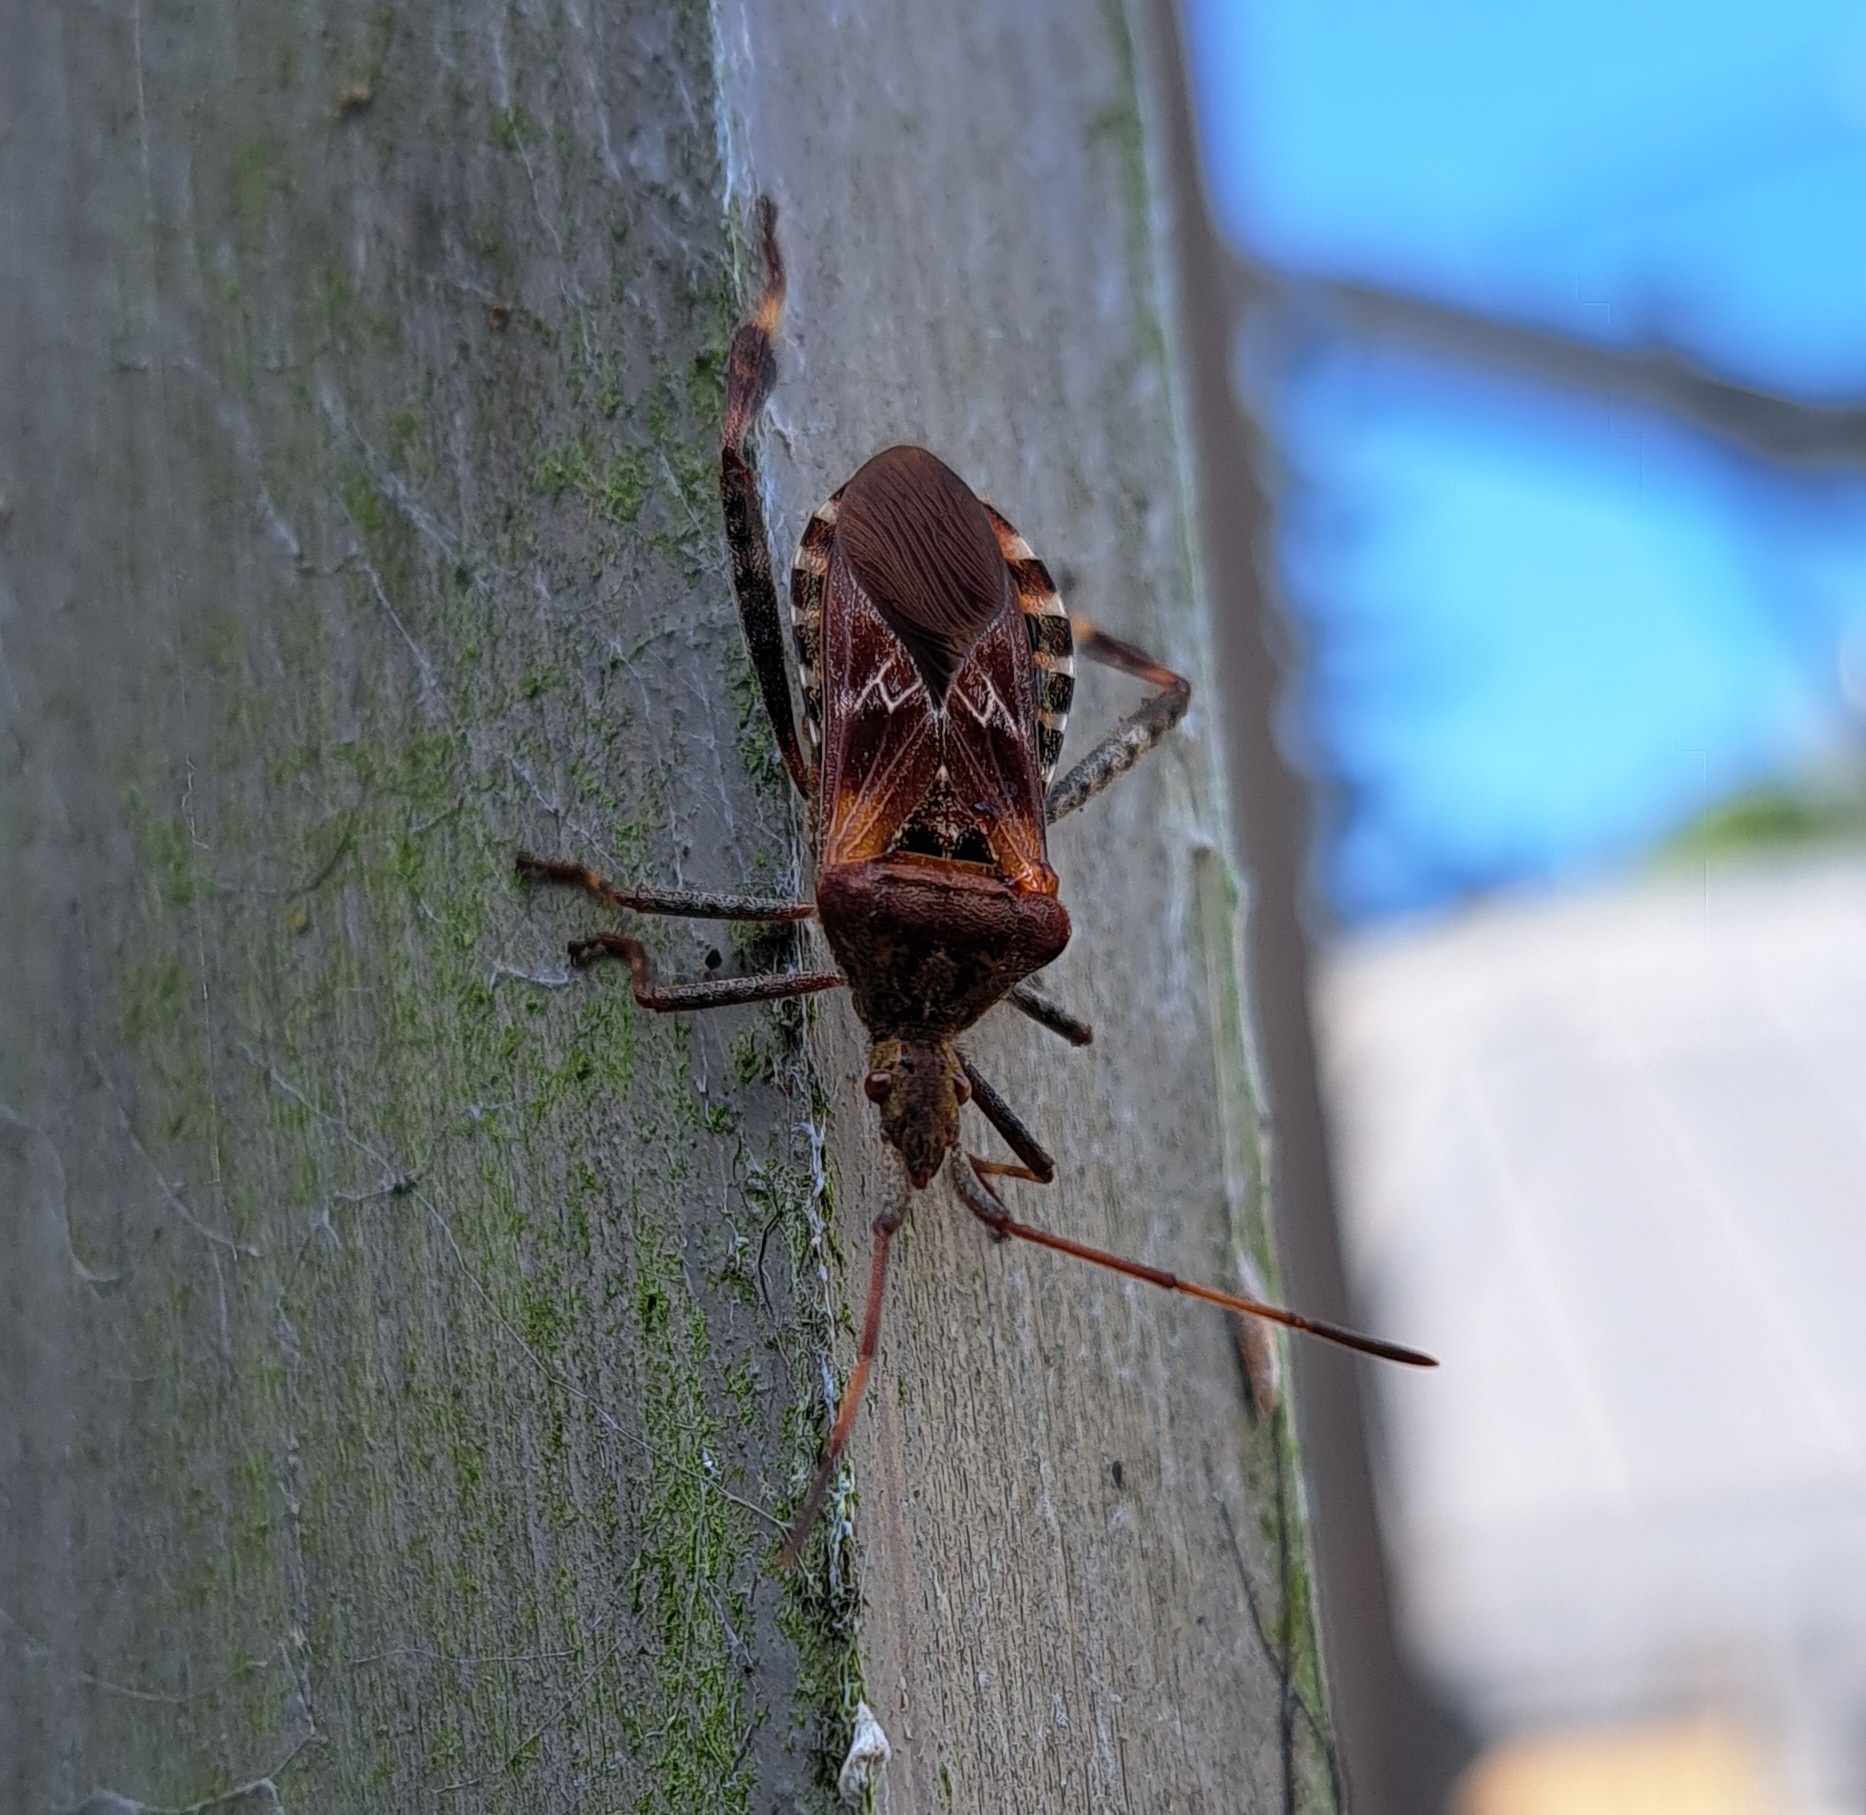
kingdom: Animalia
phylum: Arthropoda
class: Insecta
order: Hemiptera
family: Coreidae
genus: Leptoglossus
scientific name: Leptoglossus occidentalis
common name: Western conifer-seed bug
